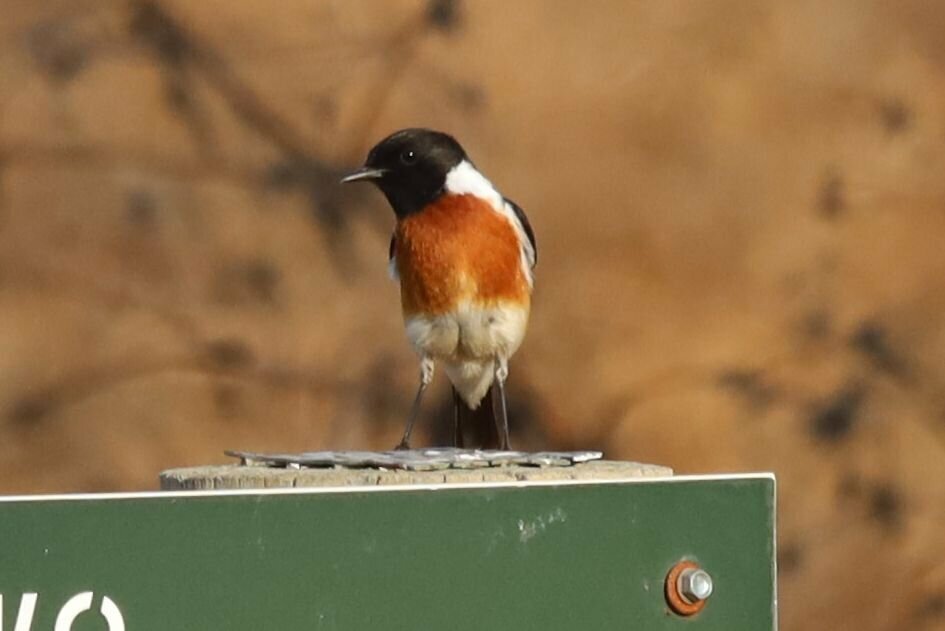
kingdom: Animalia
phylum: Chordata
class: Aves
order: Passeriformes
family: Muscicapidae
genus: Saxicola
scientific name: Saxicola torquatus
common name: African stonechat
